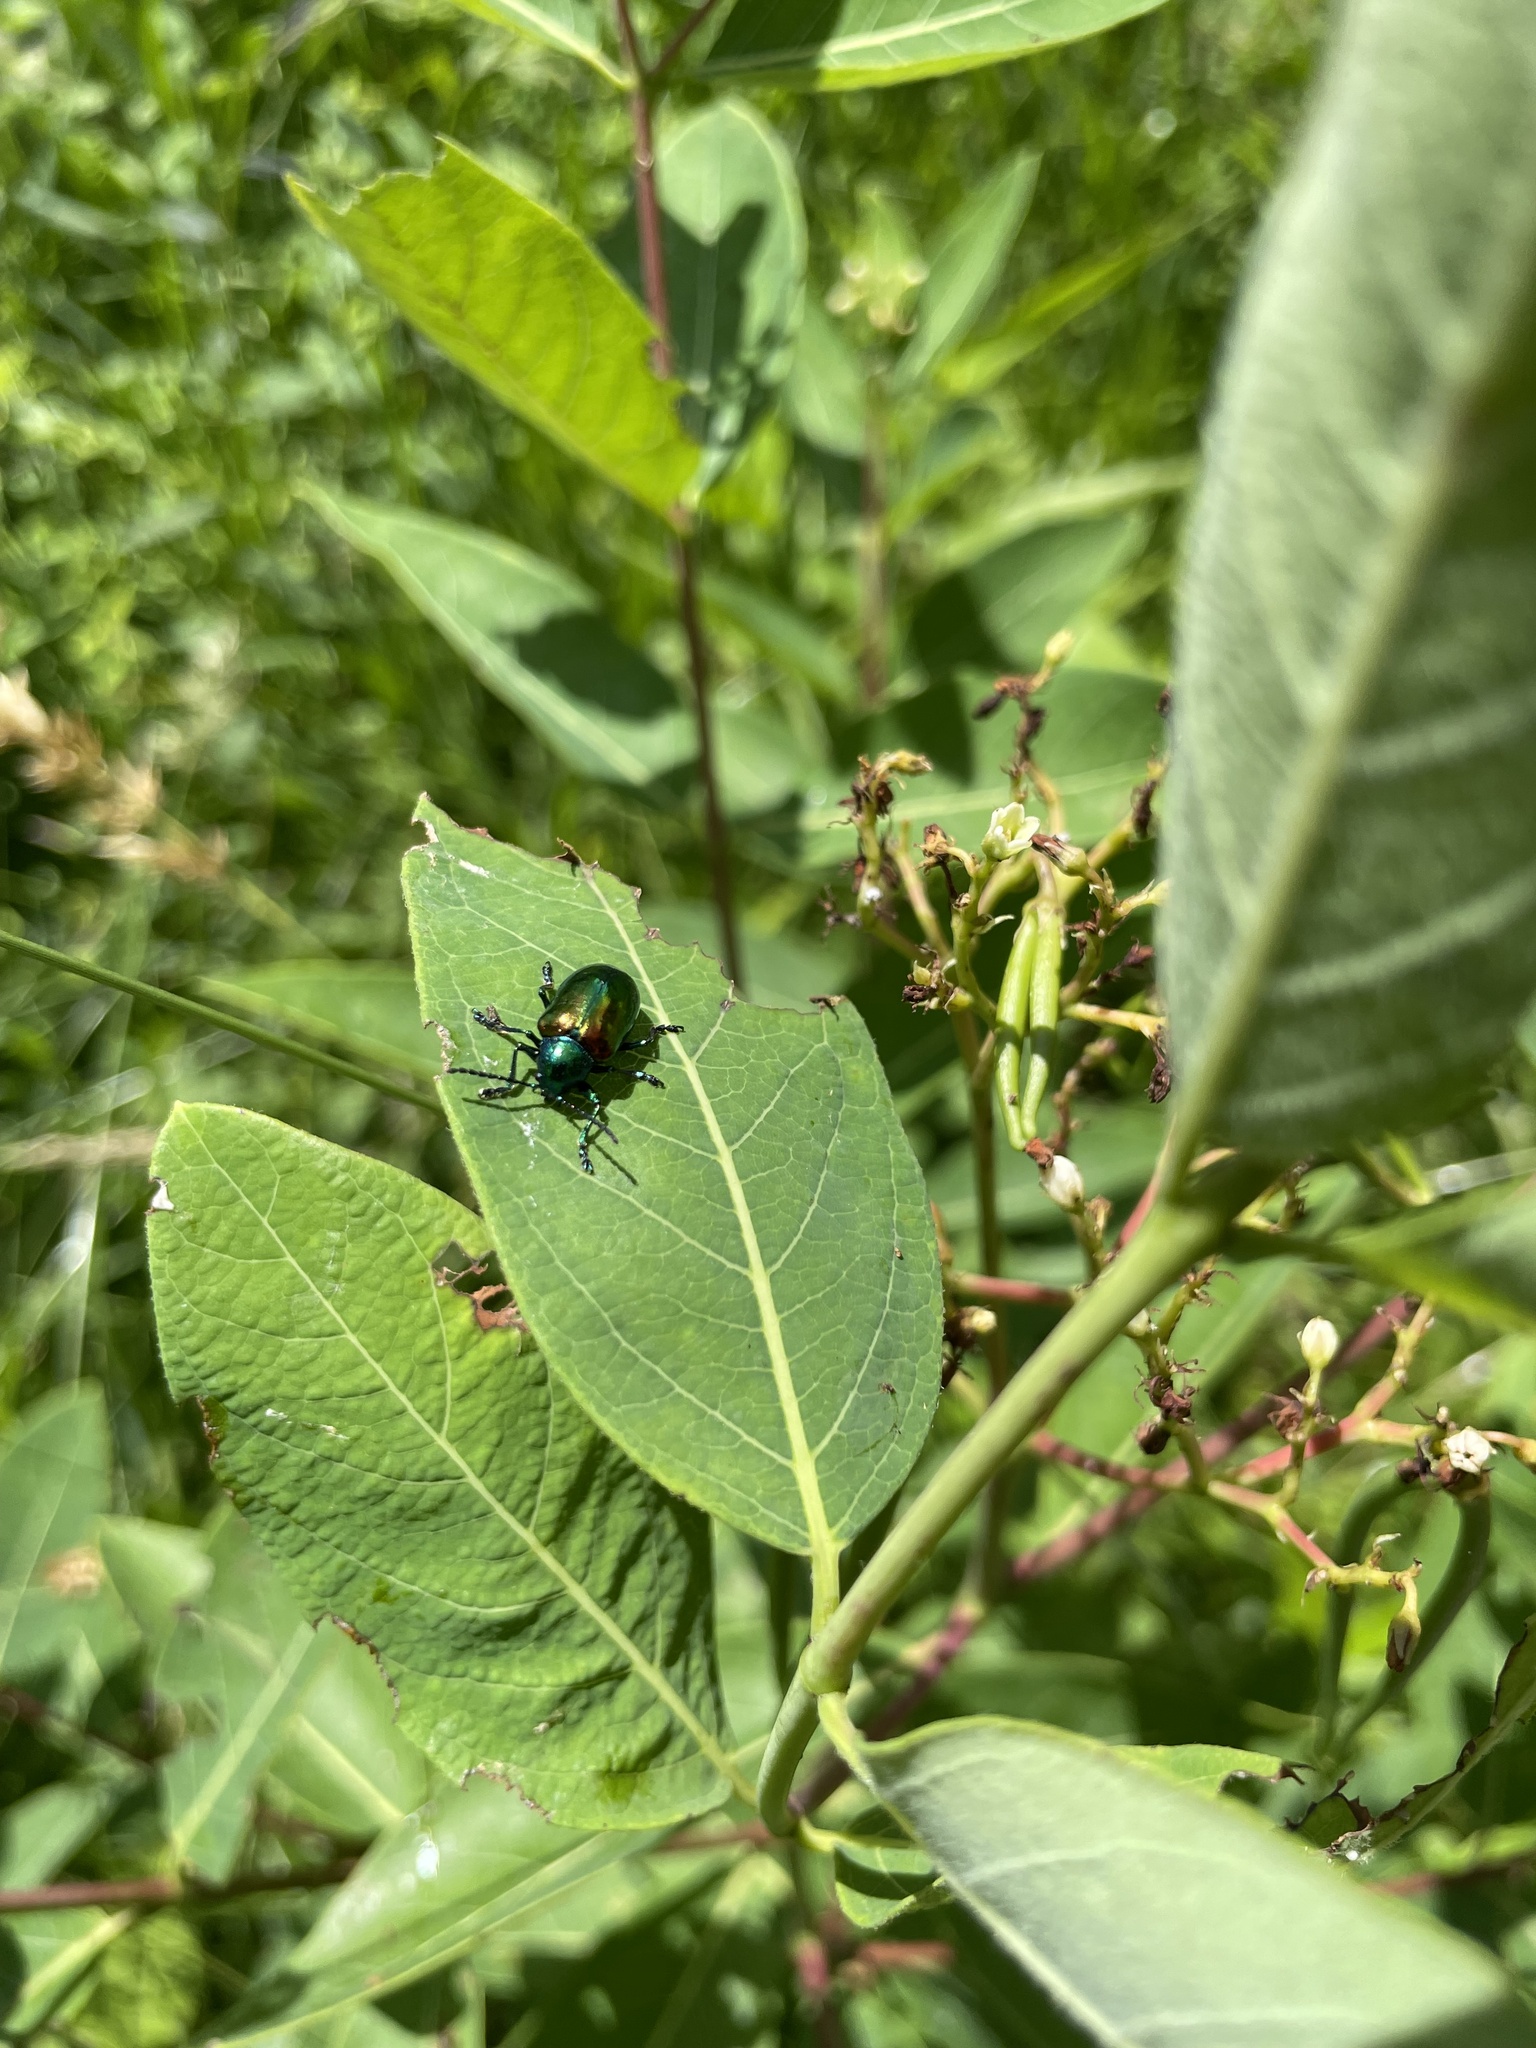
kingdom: Animalia
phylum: Arthropoda
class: Insecta
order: Coleoptera
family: Chrysomelidae
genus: Chrysochus
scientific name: Chrysochus auratus
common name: Dogbane leaf beetle
